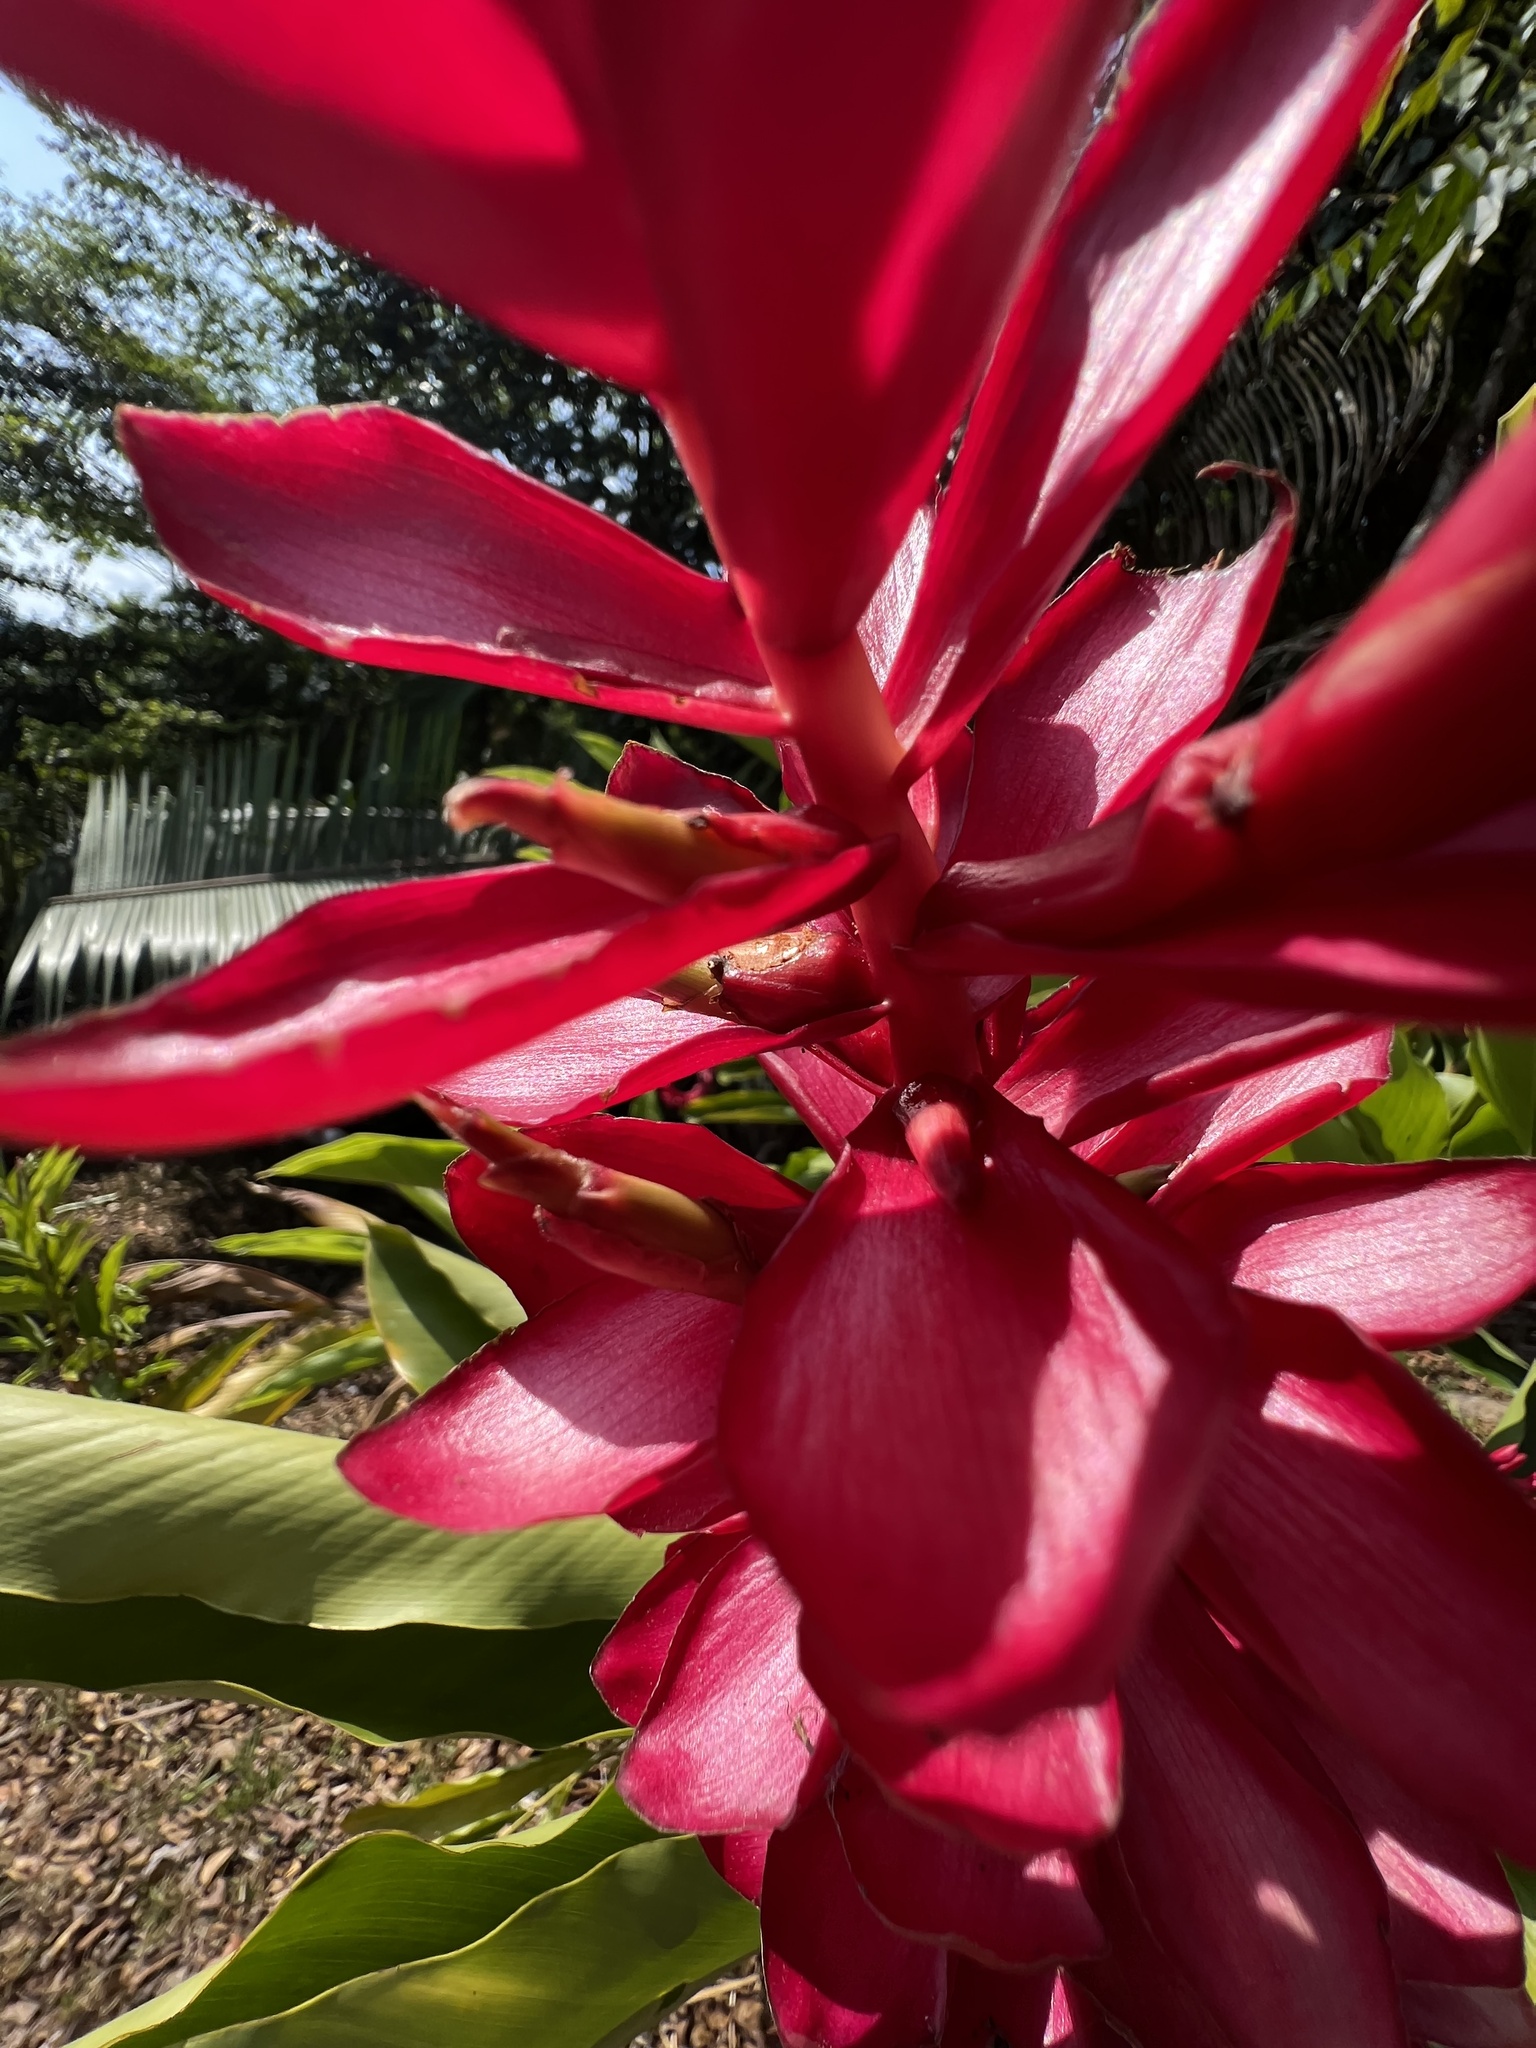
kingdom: Plantae
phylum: Tracheophyta
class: Liliopsida
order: Zingiberales
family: Zingiberaceae
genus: Alpinia
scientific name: Alpinia purpurata
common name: Red ginger
